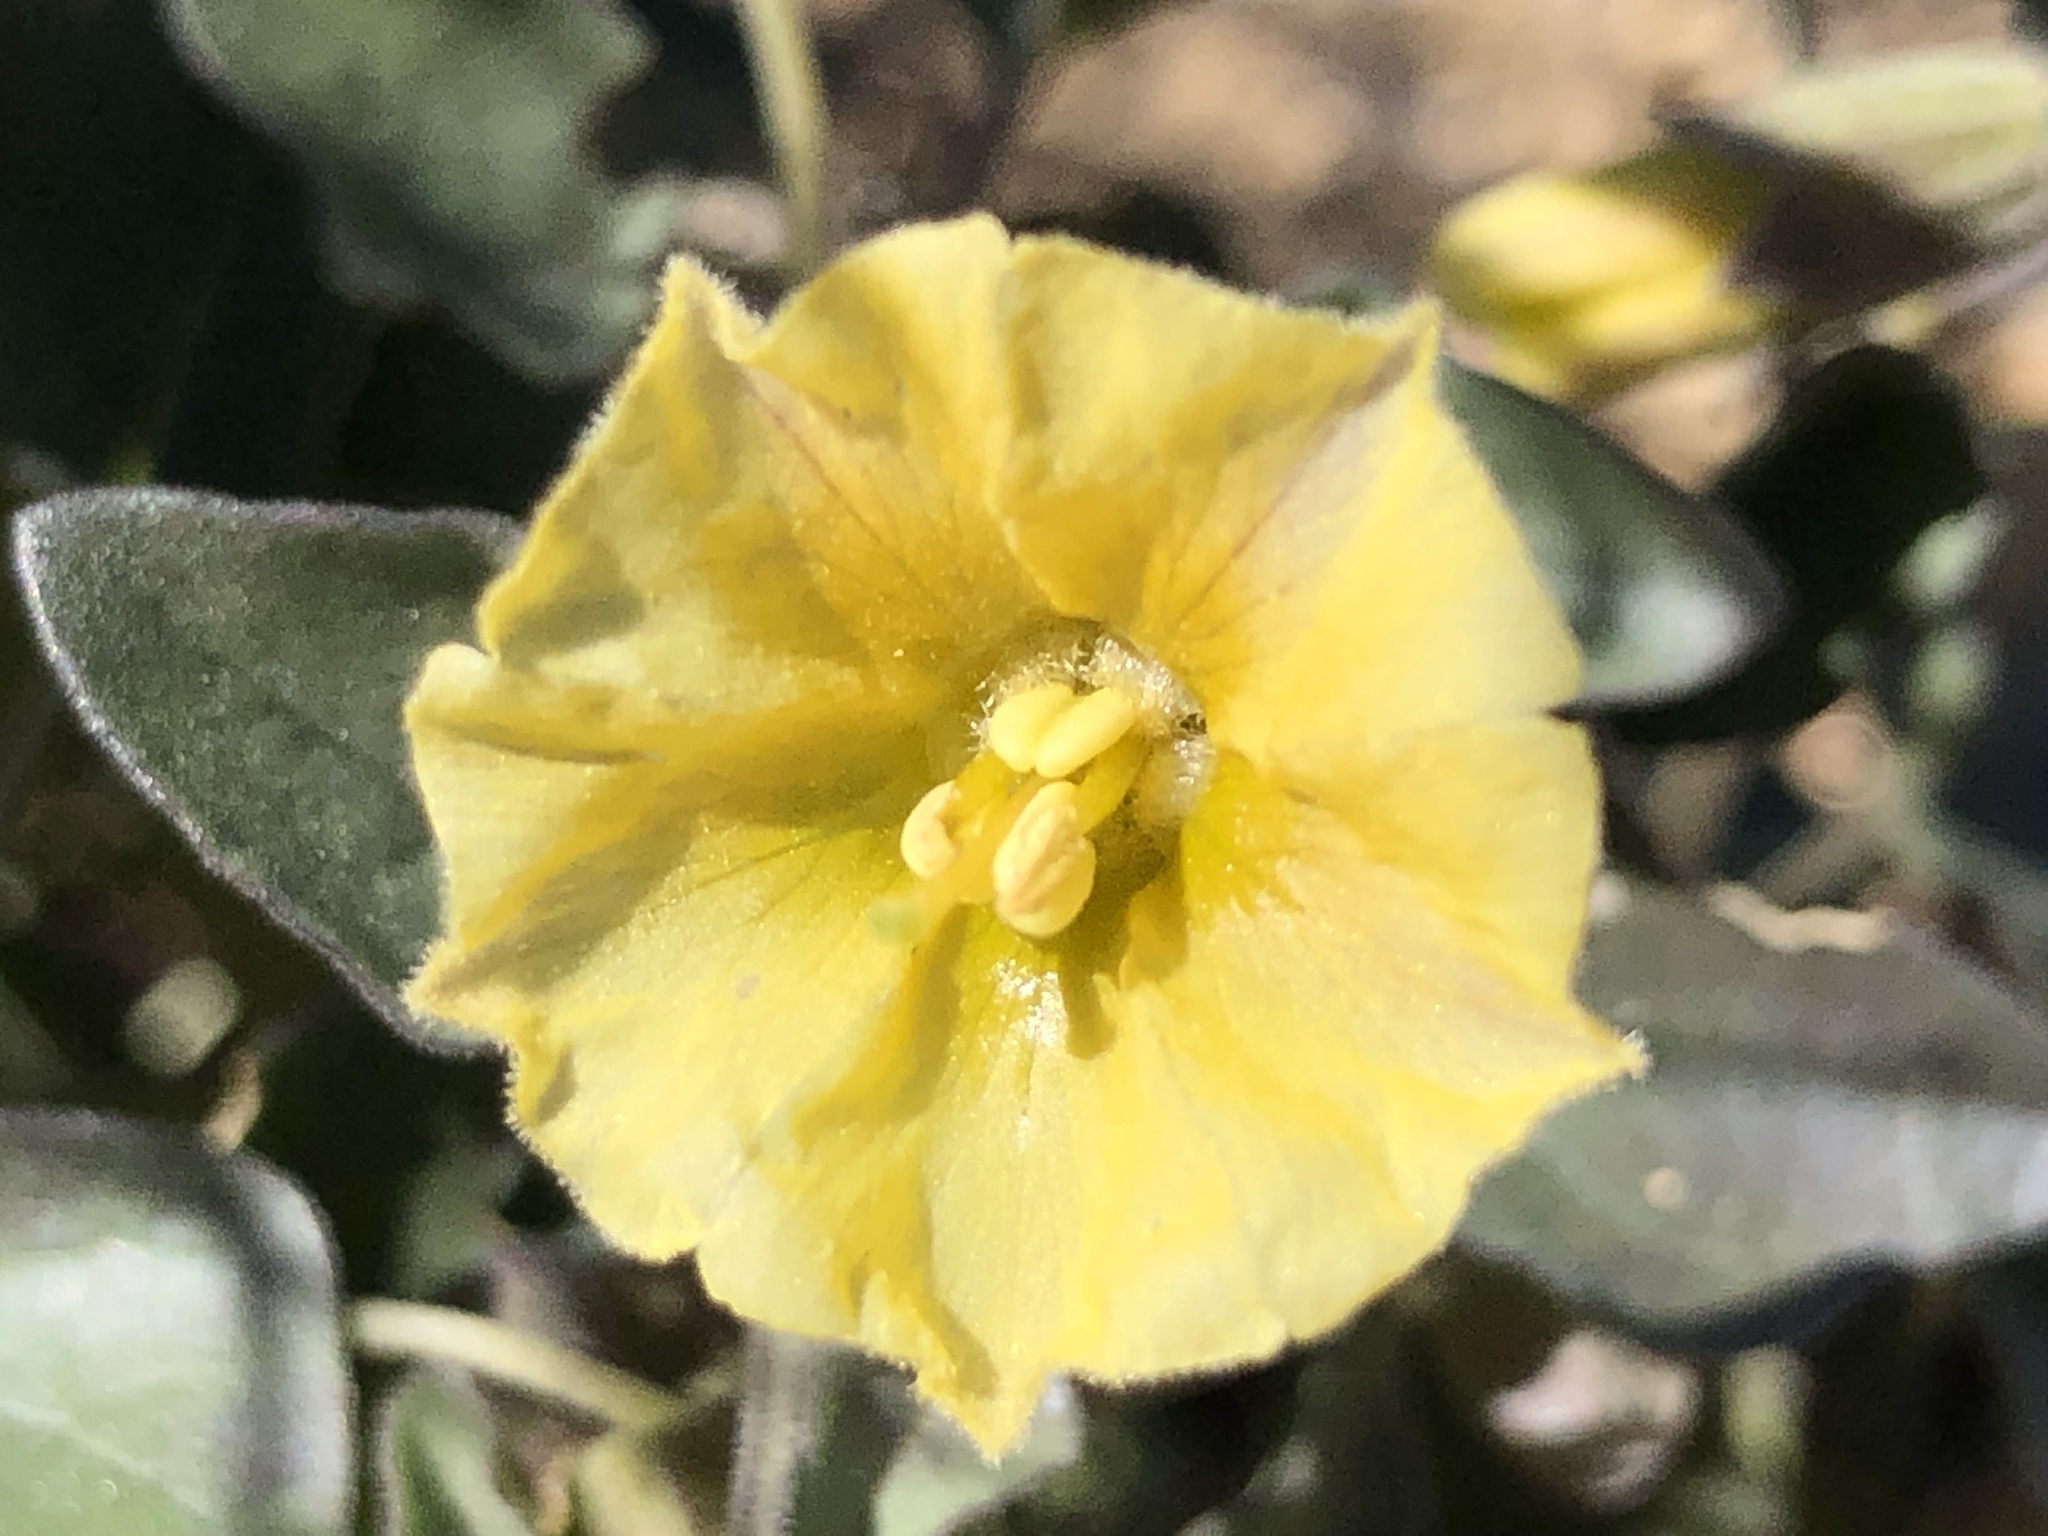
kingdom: Plantae
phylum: Tracheophyta
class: Magnoliopsida
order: Solanales
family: Solanaceae
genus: Physalis
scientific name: Physalis crassifolia
